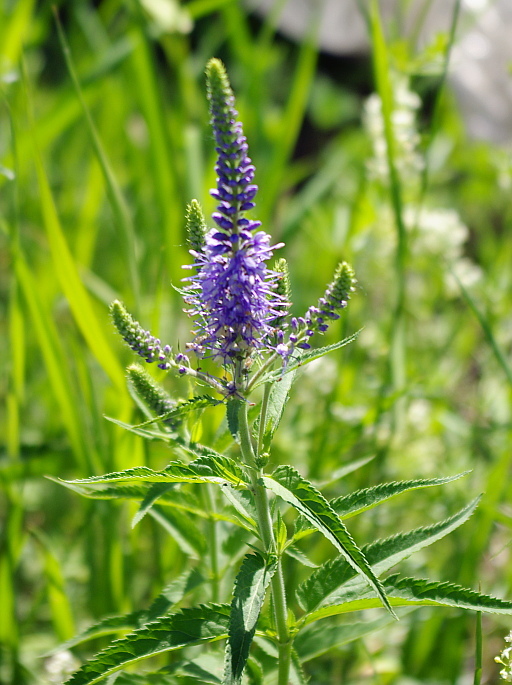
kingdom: Plantae
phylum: Tracheophyta
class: Magnoliopsida
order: Lamiales
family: Plantaginaceae
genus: Veronica
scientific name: Veronica longifolia
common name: Garden speedwell
